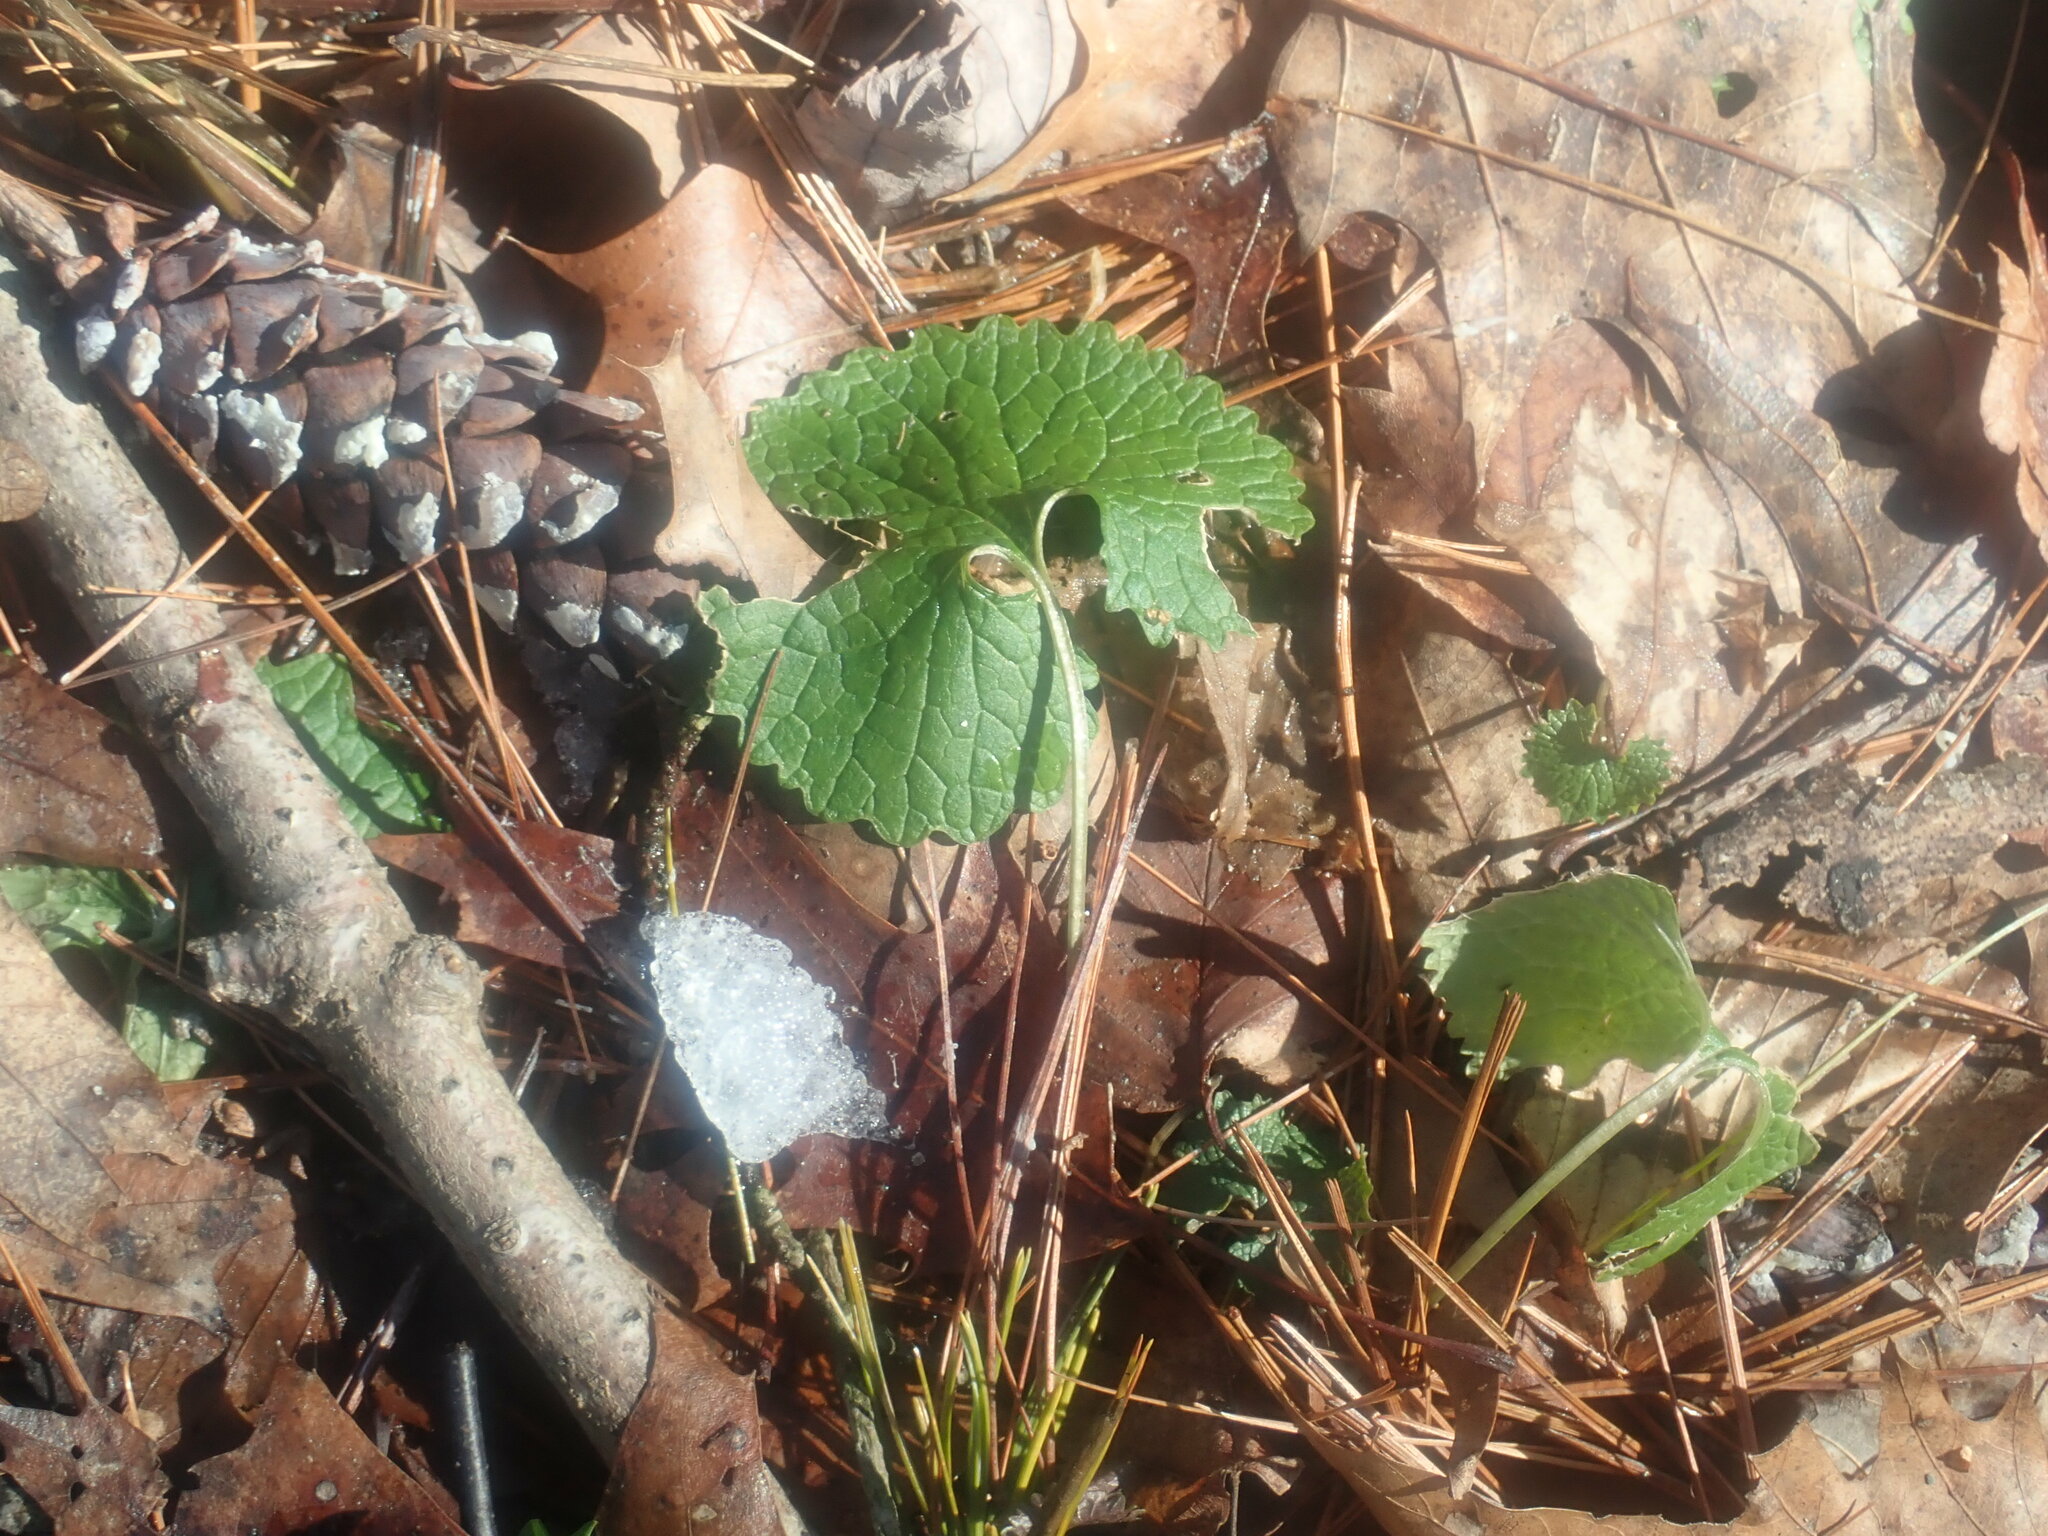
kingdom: Plantae
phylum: Tracheophyta
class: Magnoliopsida
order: Brassicales
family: Brassicaceae
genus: Alliaria
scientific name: Alliaria petiolata
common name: Garlic mustard
